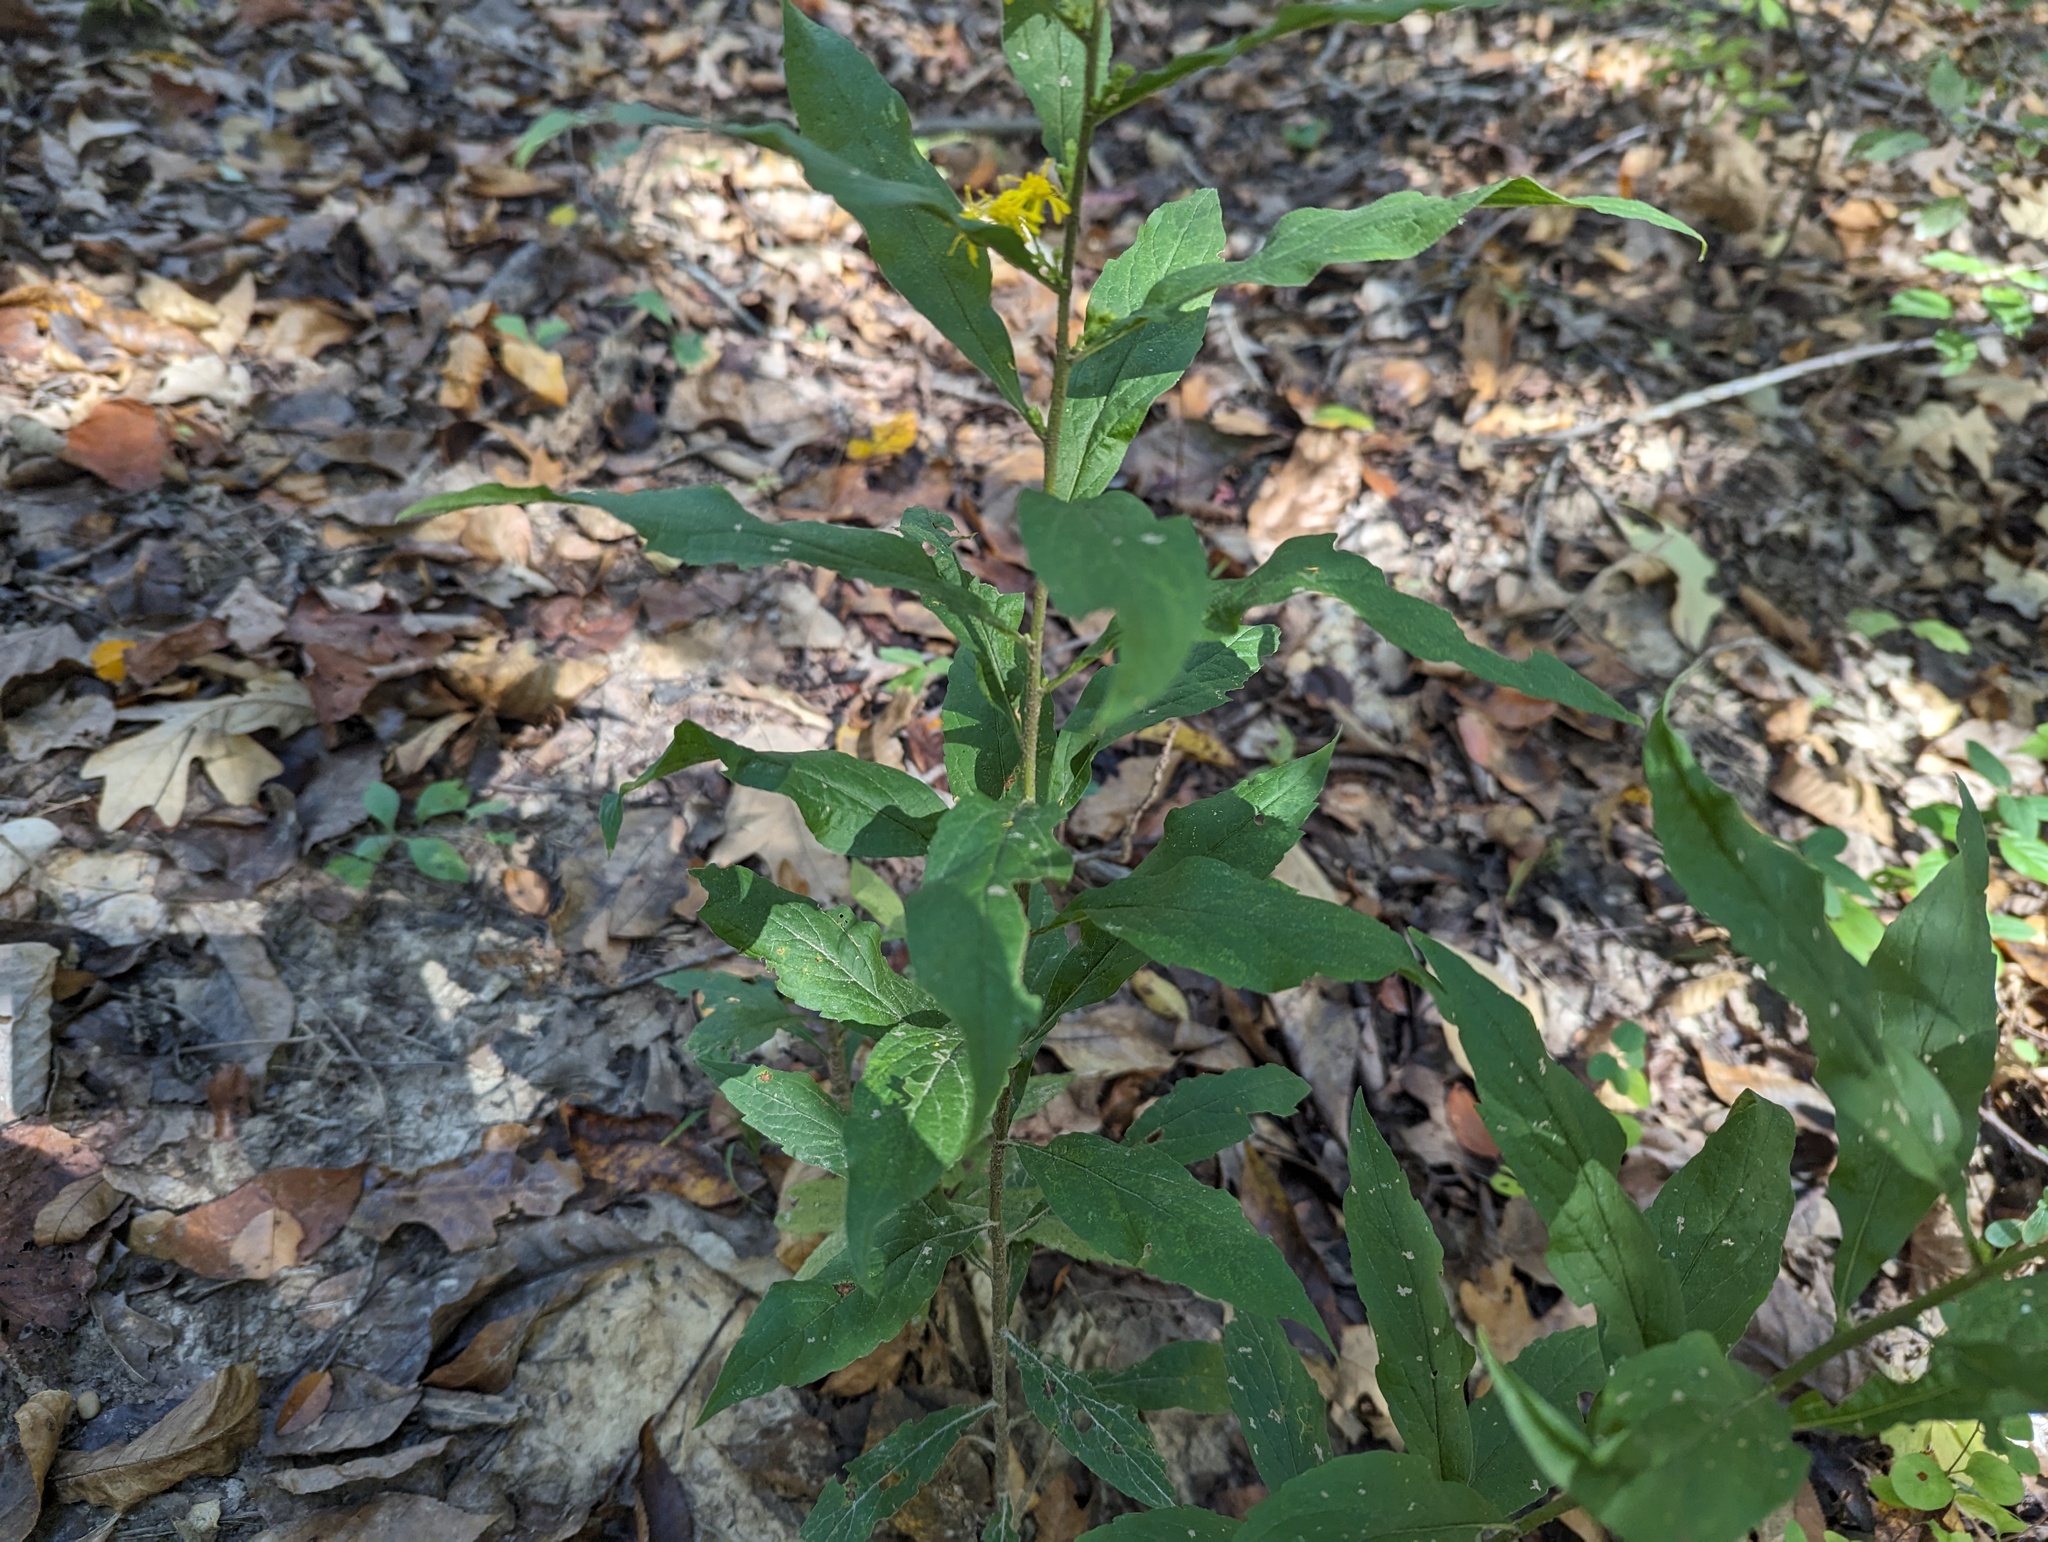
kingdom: Plantae
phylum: Tracheophyta
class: Magnoliopsida
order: Asterales
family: Asteraceae
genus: Solidago
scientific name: Solidago buckleyi
